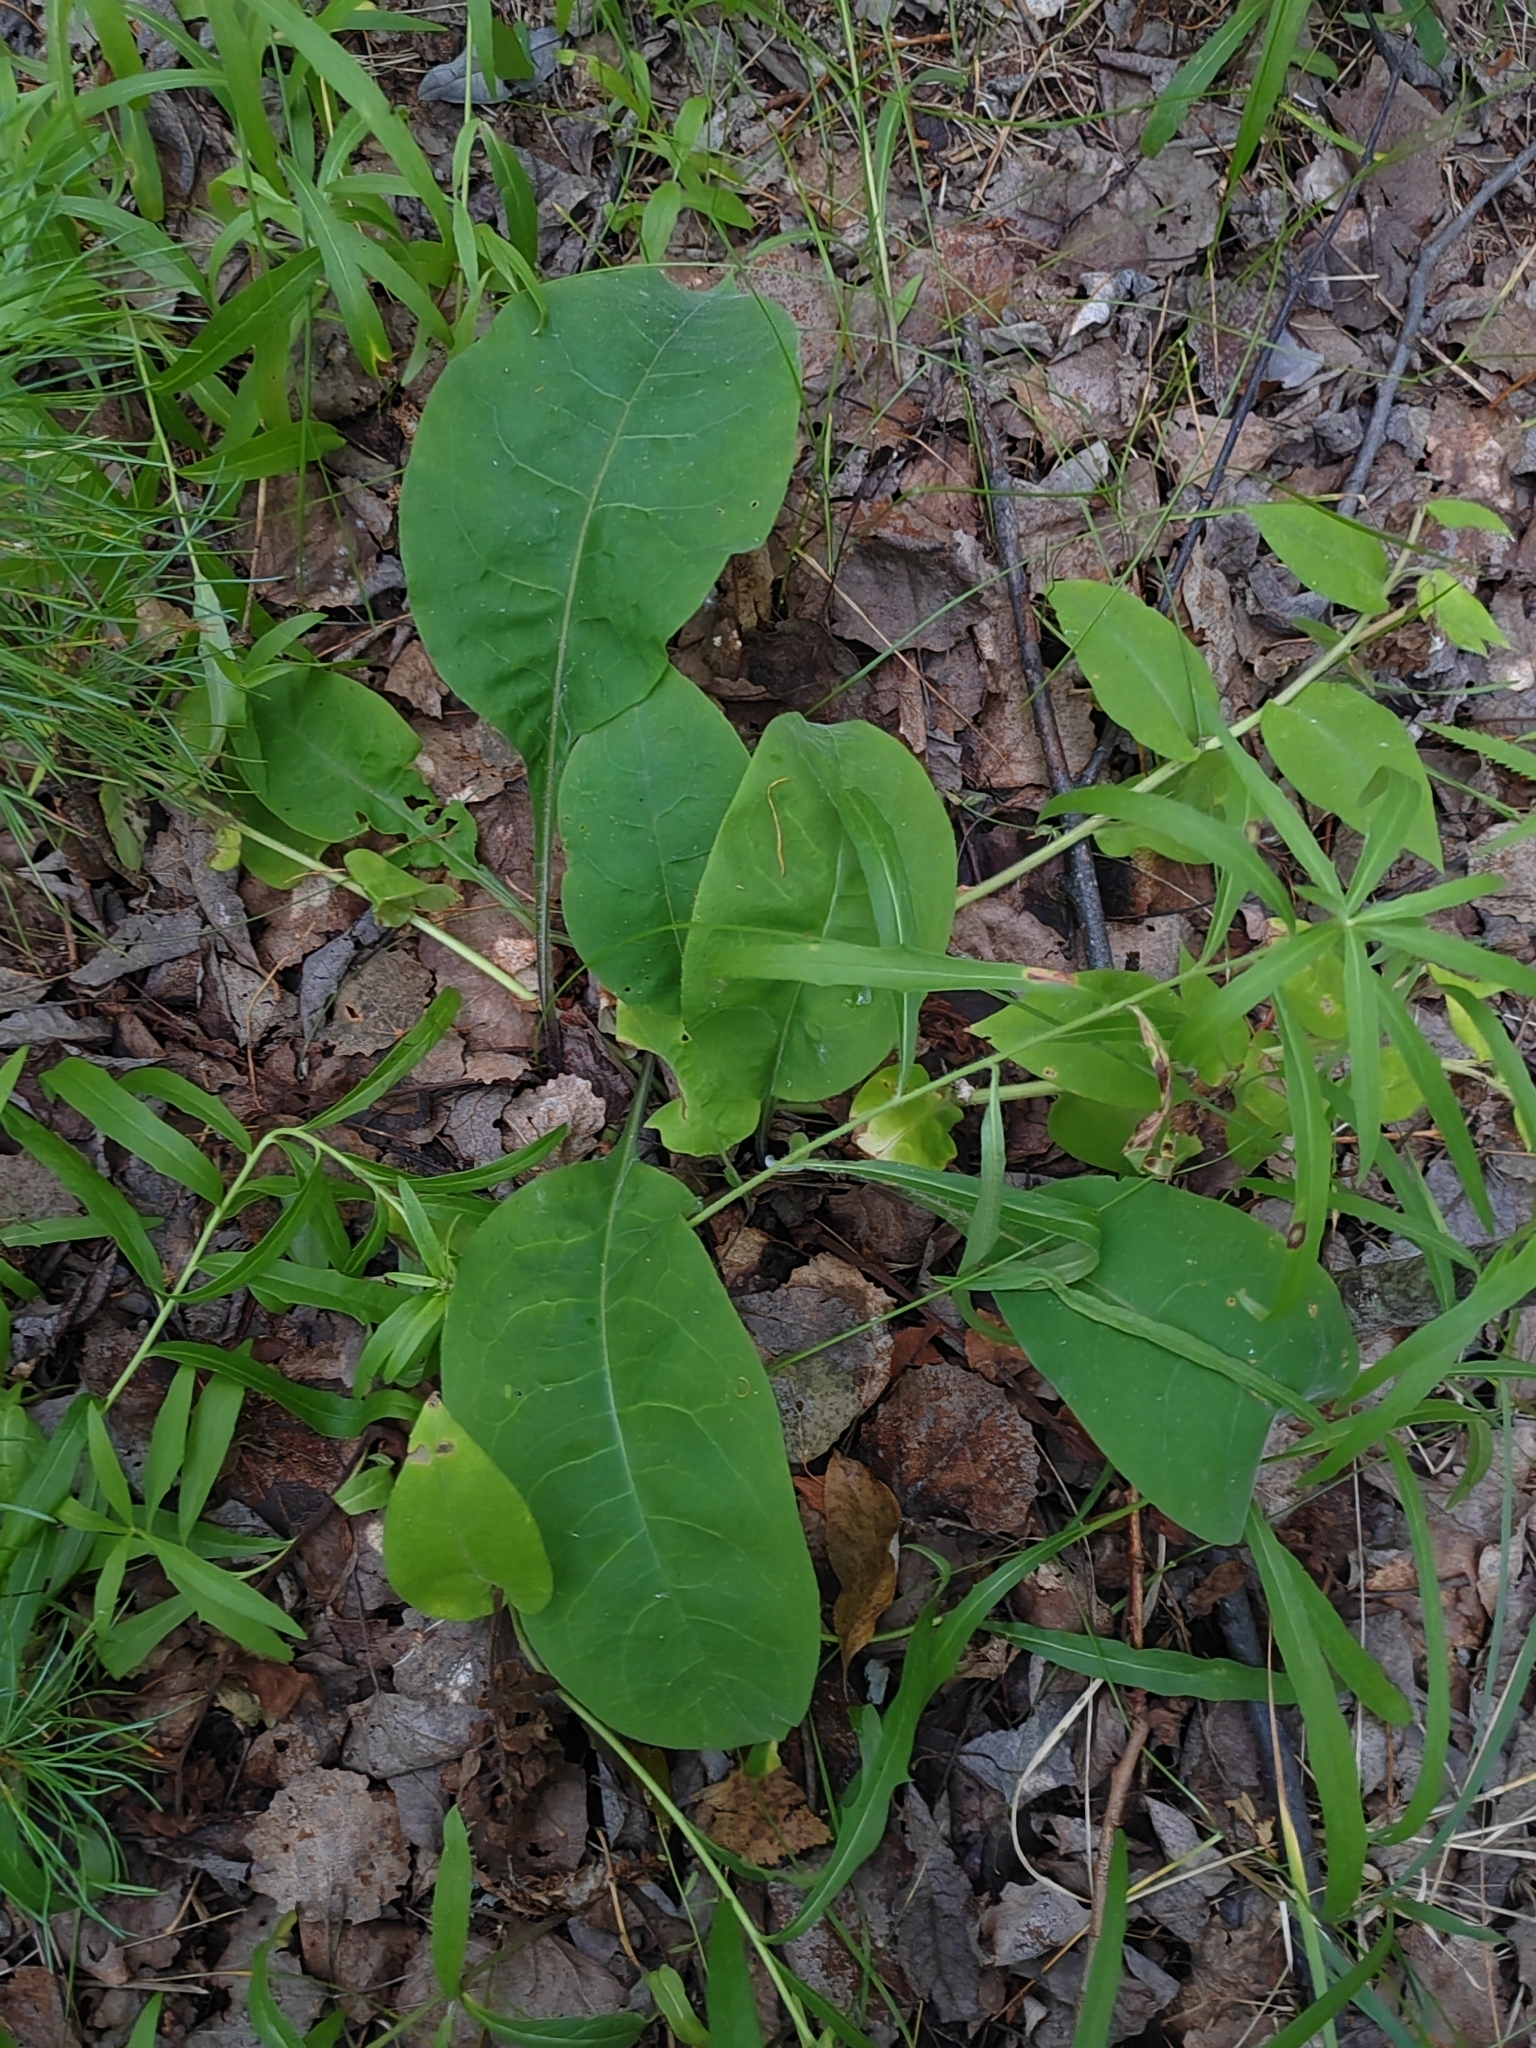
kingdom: Plantae
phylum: Tracheophyta
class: Magnoliopsida
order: Boraginales
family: Boraginaceae
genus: Pulmonaria
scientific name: Pulmonaria mollis
